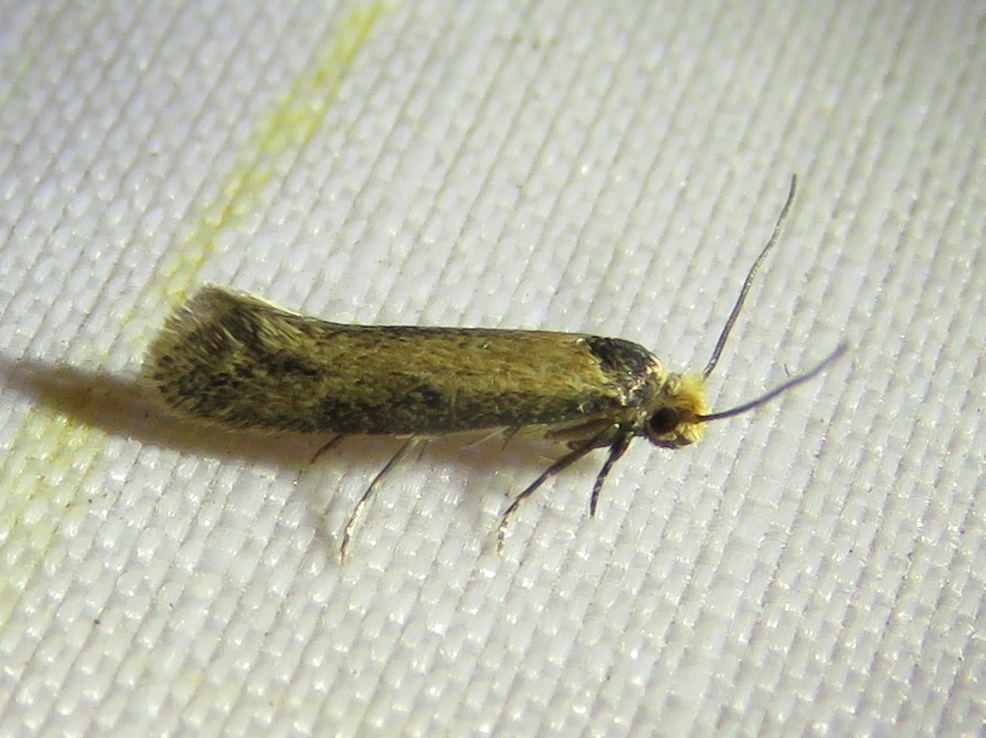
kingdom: Animalia
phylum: Arthropoda
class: Insecta
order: Lepidoptera
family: Meessiidae
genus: Homostinea
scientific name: Homostinea curviliniella
